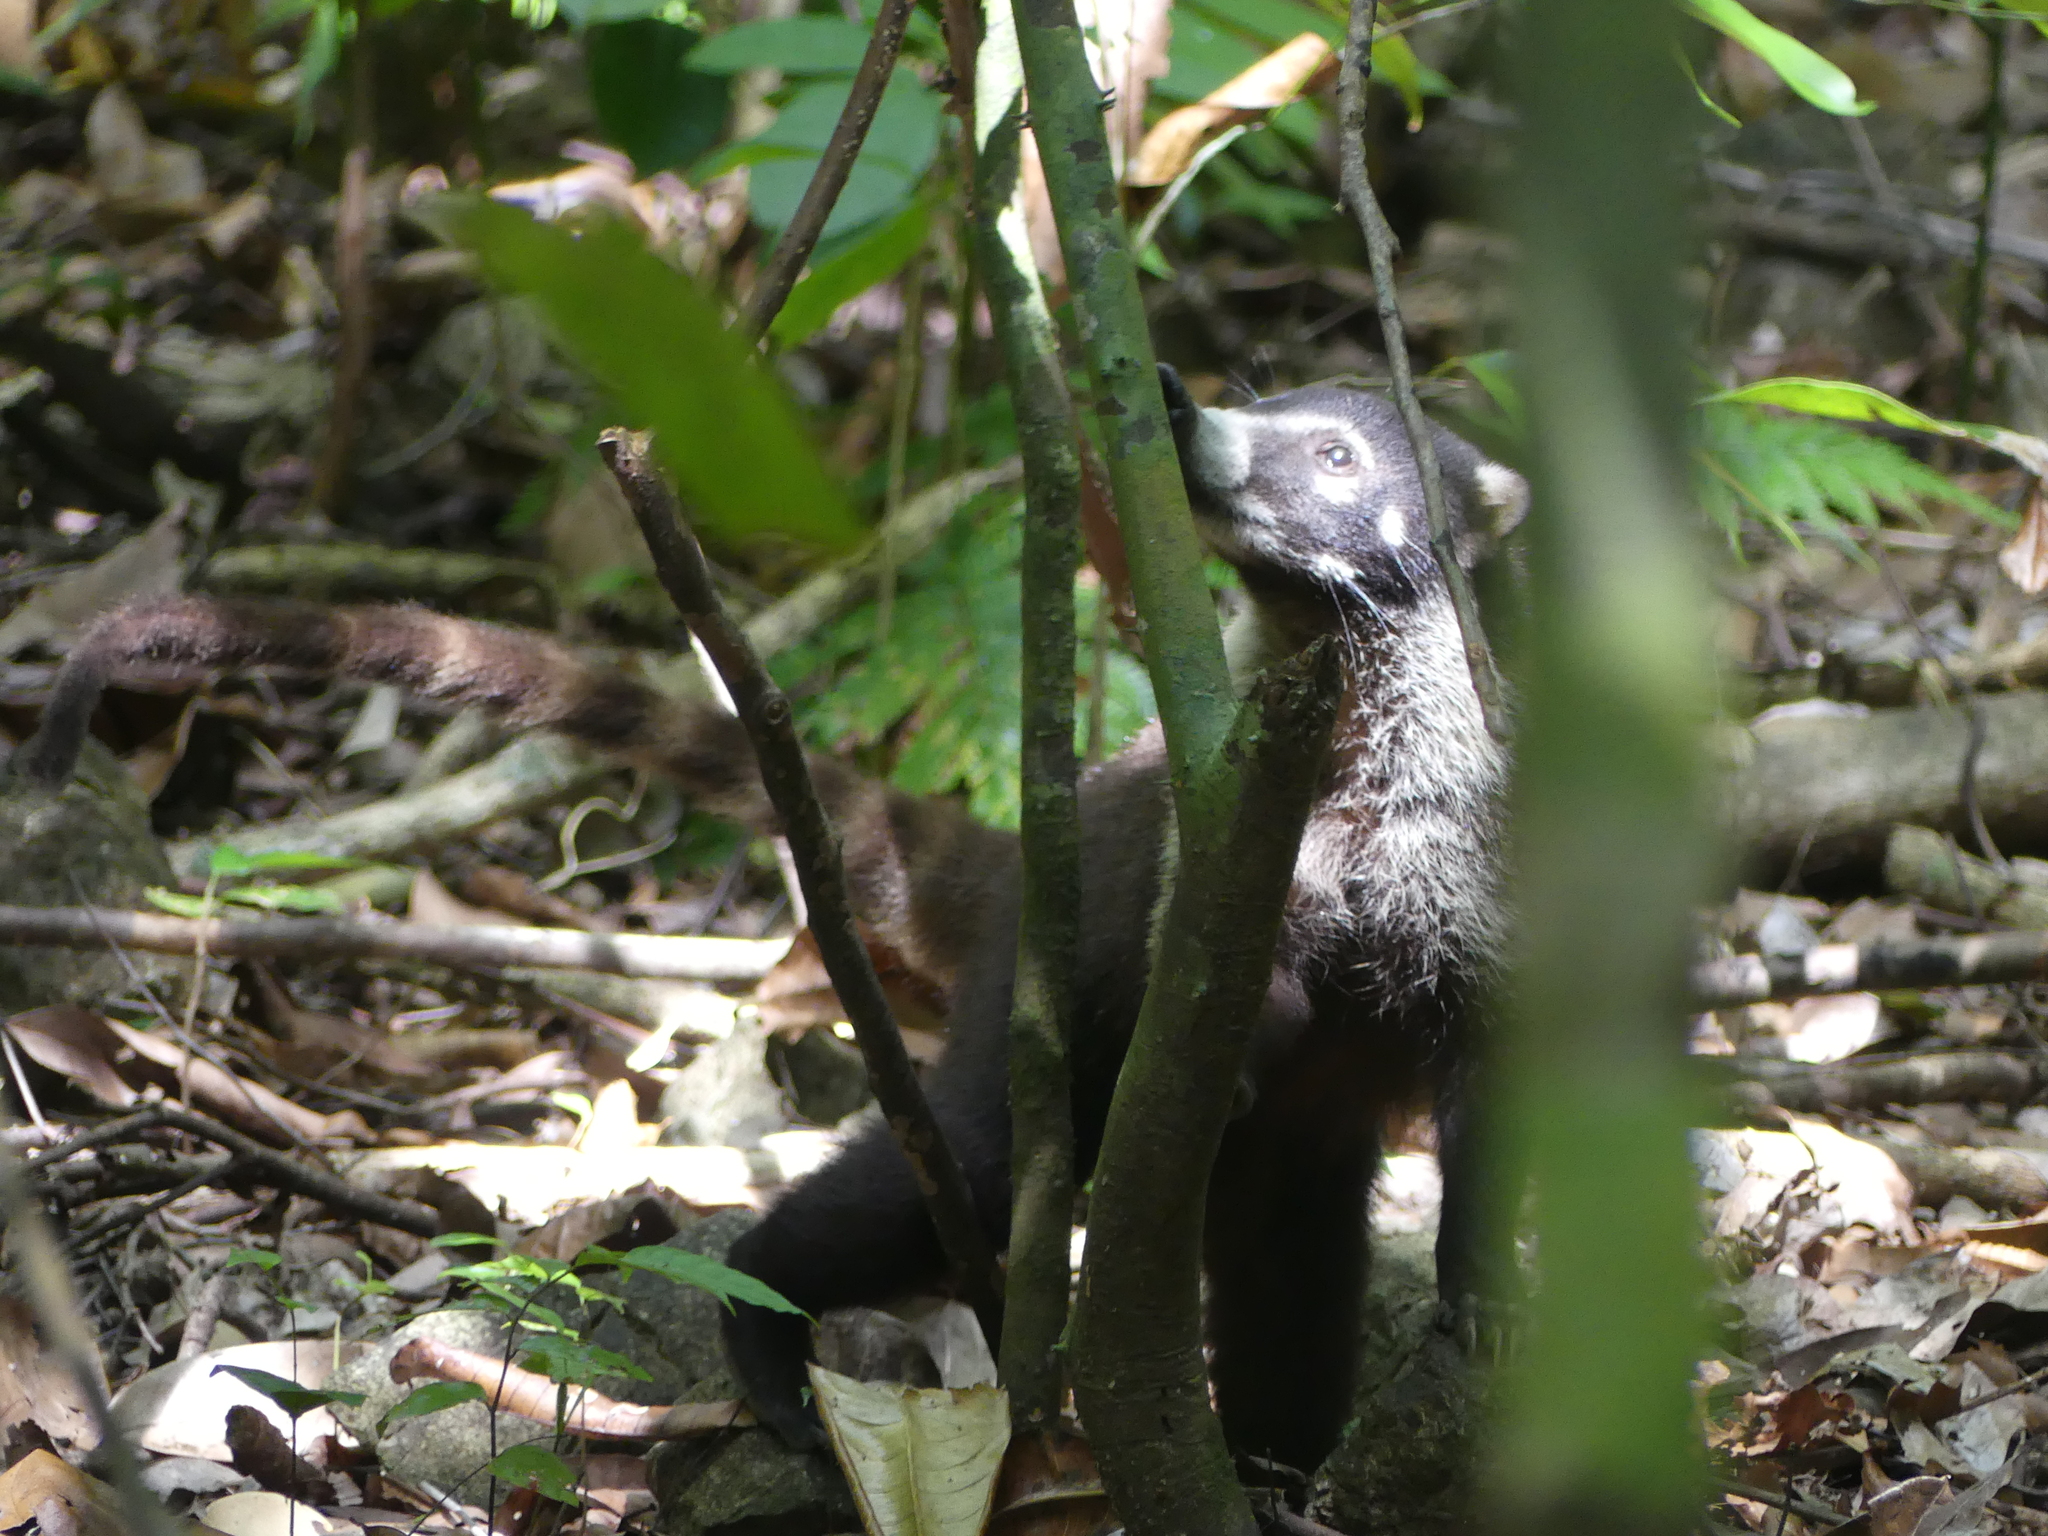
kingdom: Animalia
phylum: Chordata
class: Mammalia
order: Carnivora
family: Procyonidae
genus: Nasua
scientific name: Nasua narica
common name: White-nosed coati
